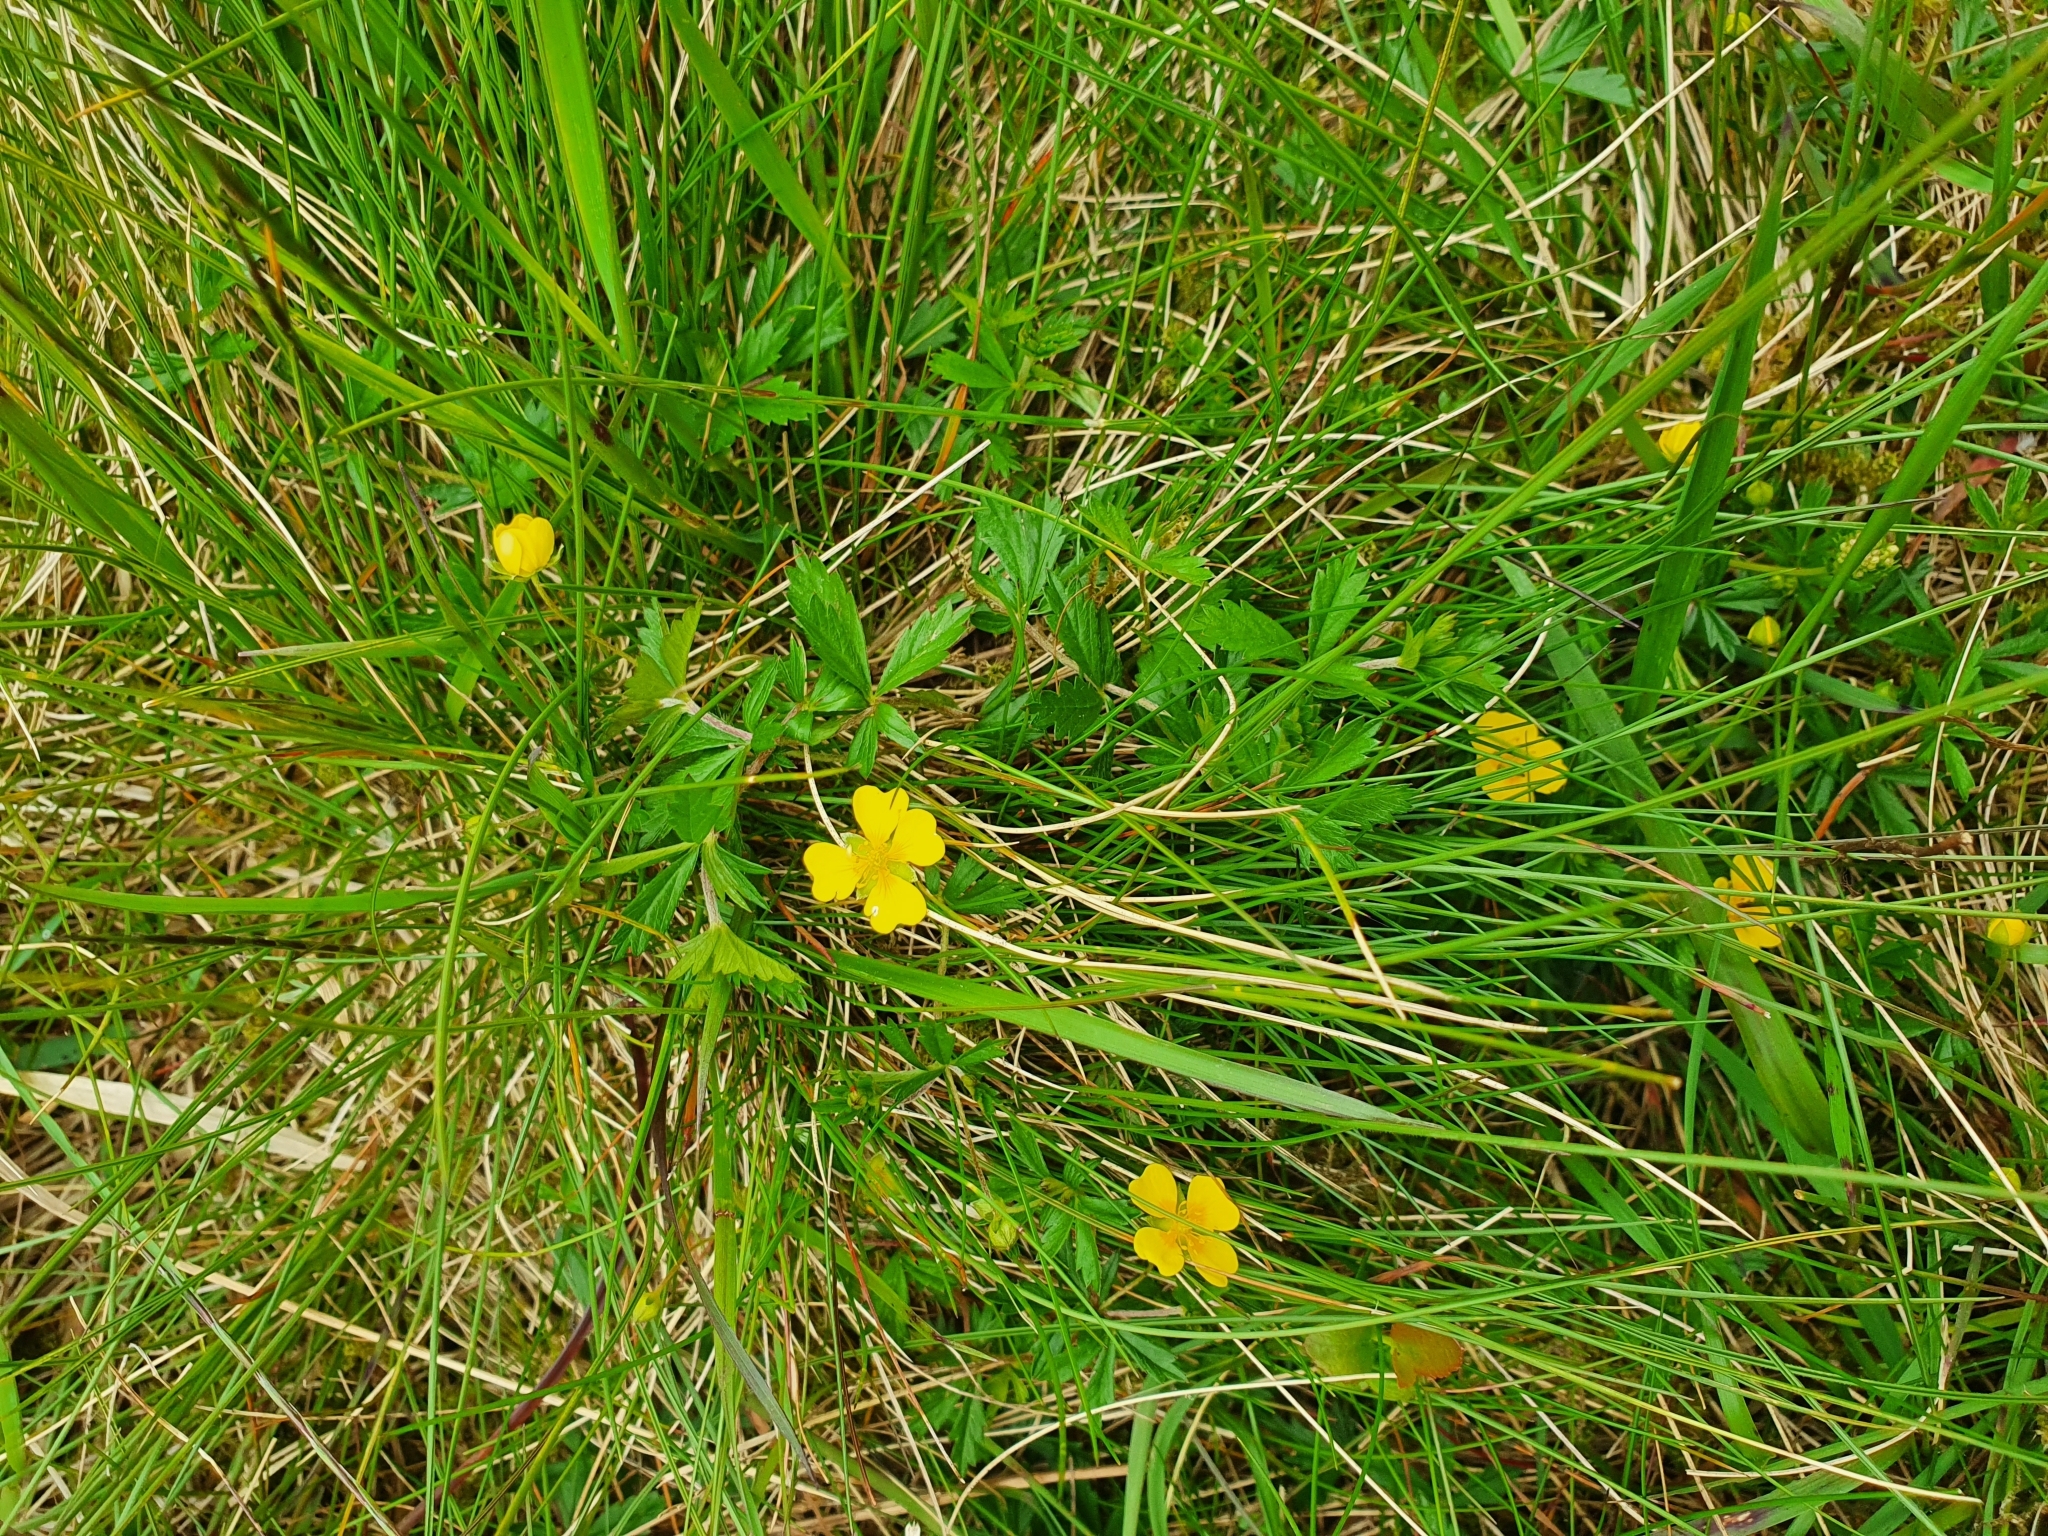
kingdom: Plantae
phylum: Tracheophyta
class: Magnoliopsida
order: Rosales
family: Rosaceae
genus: Potentilla
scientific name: Potentilla erecta
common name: Tormentil
